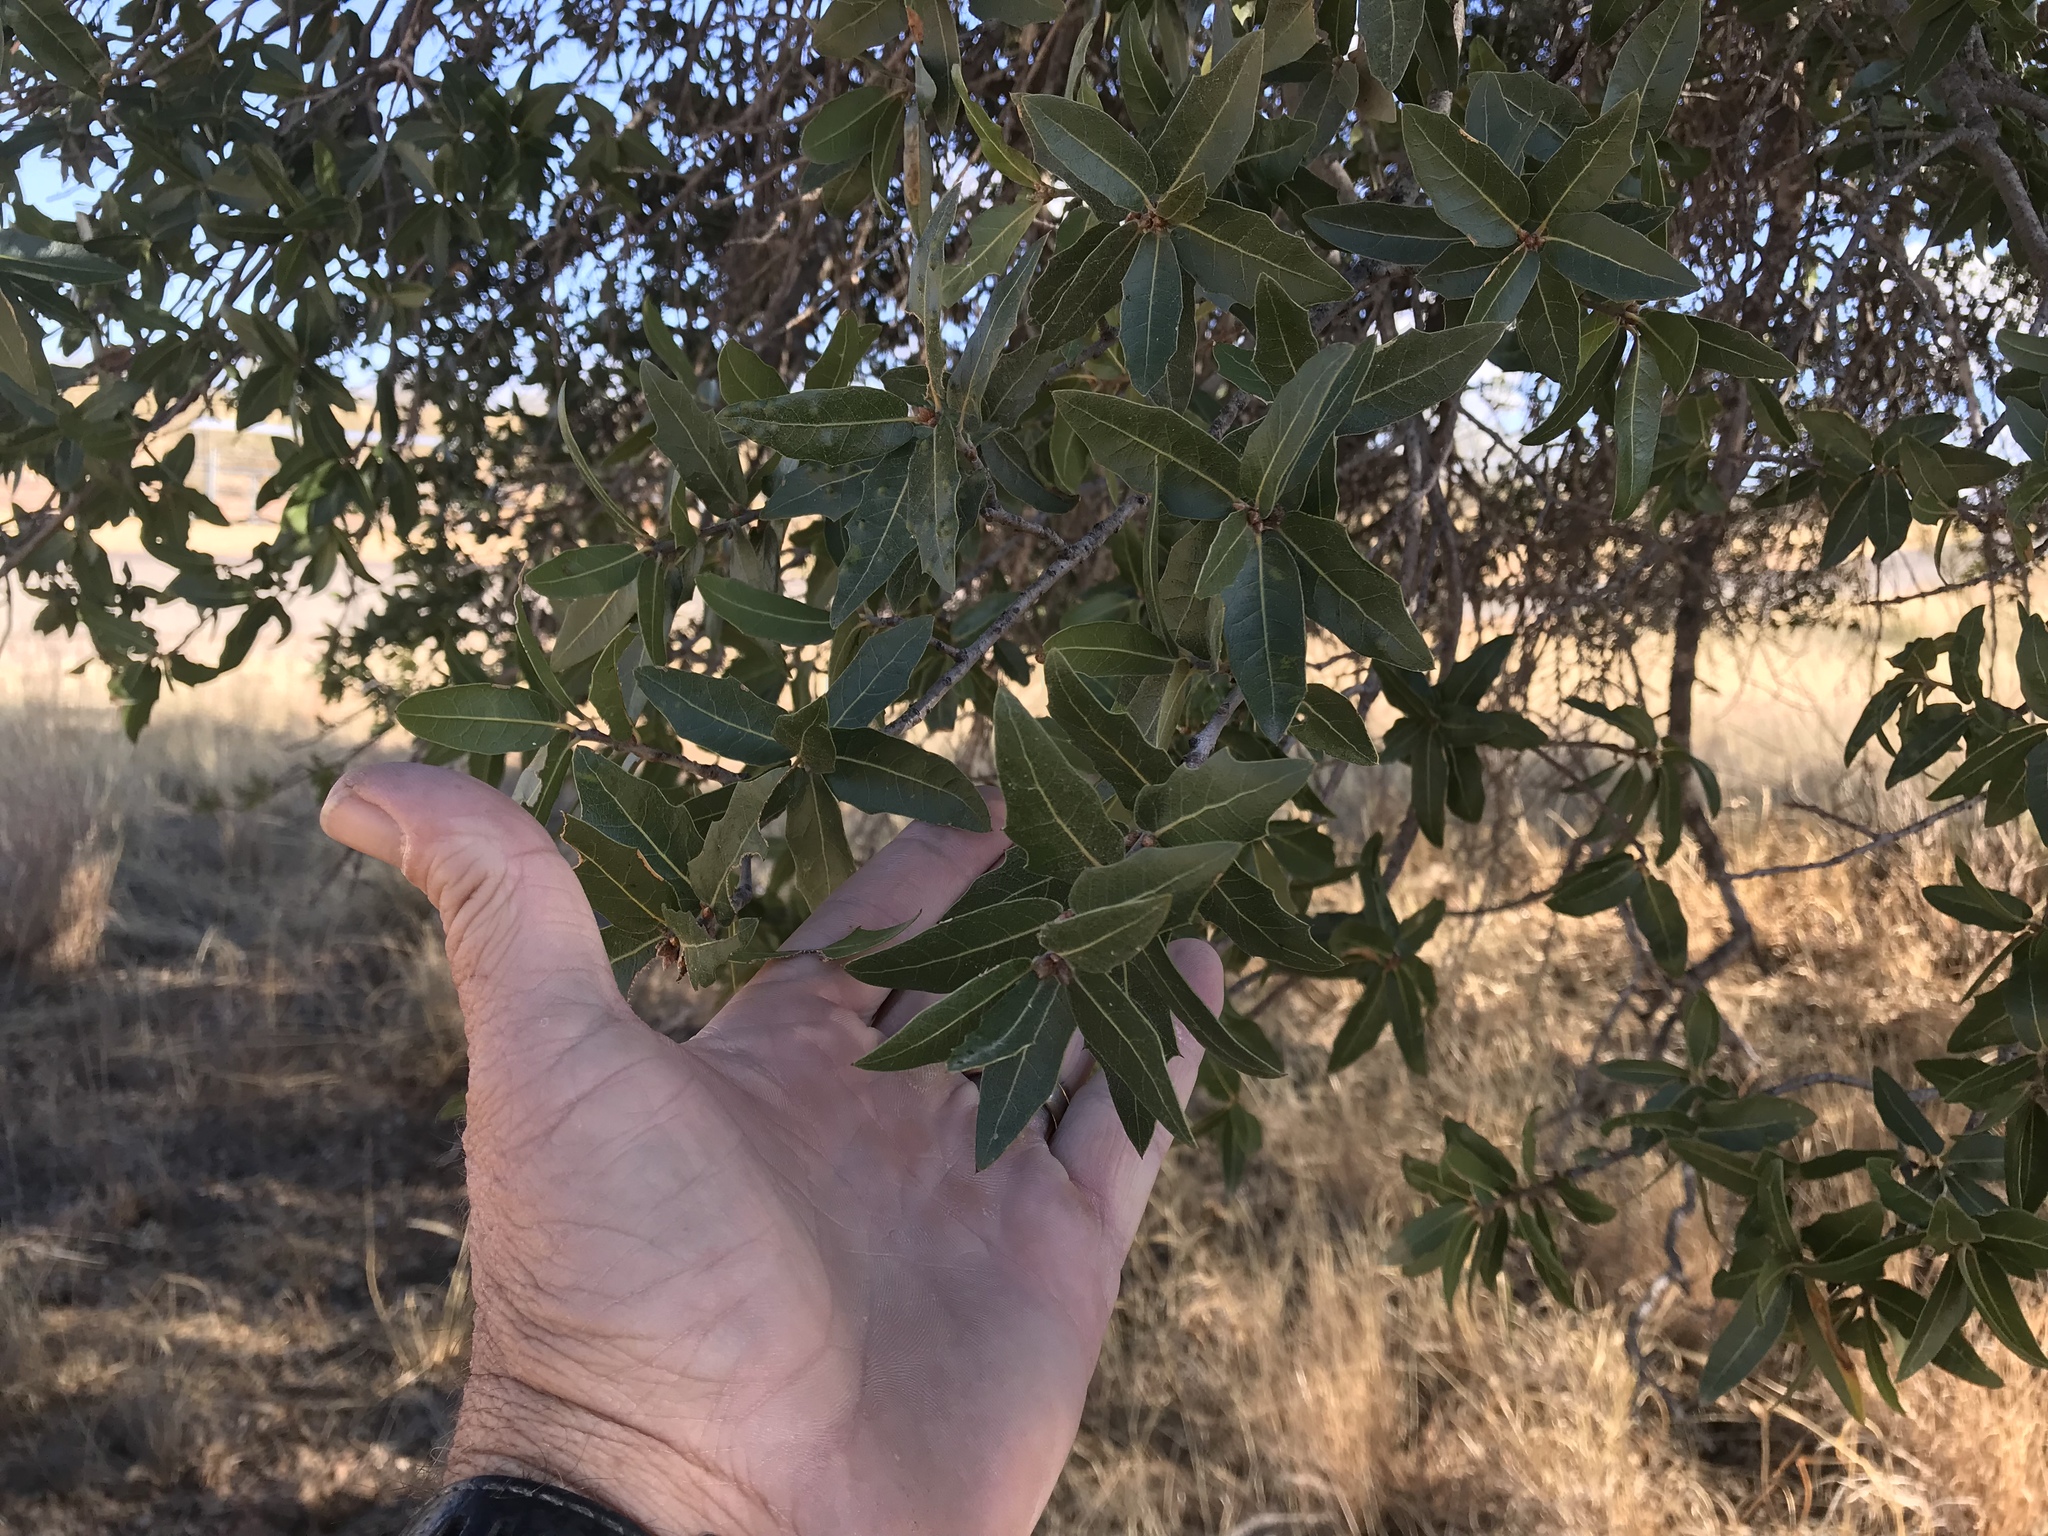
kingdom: Plantae
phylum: Tracheophyta
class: Magnoliopsida
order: Fagales
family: Fagaceae
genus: Quercus
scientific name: Quercus emoryi
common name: Emory oak
